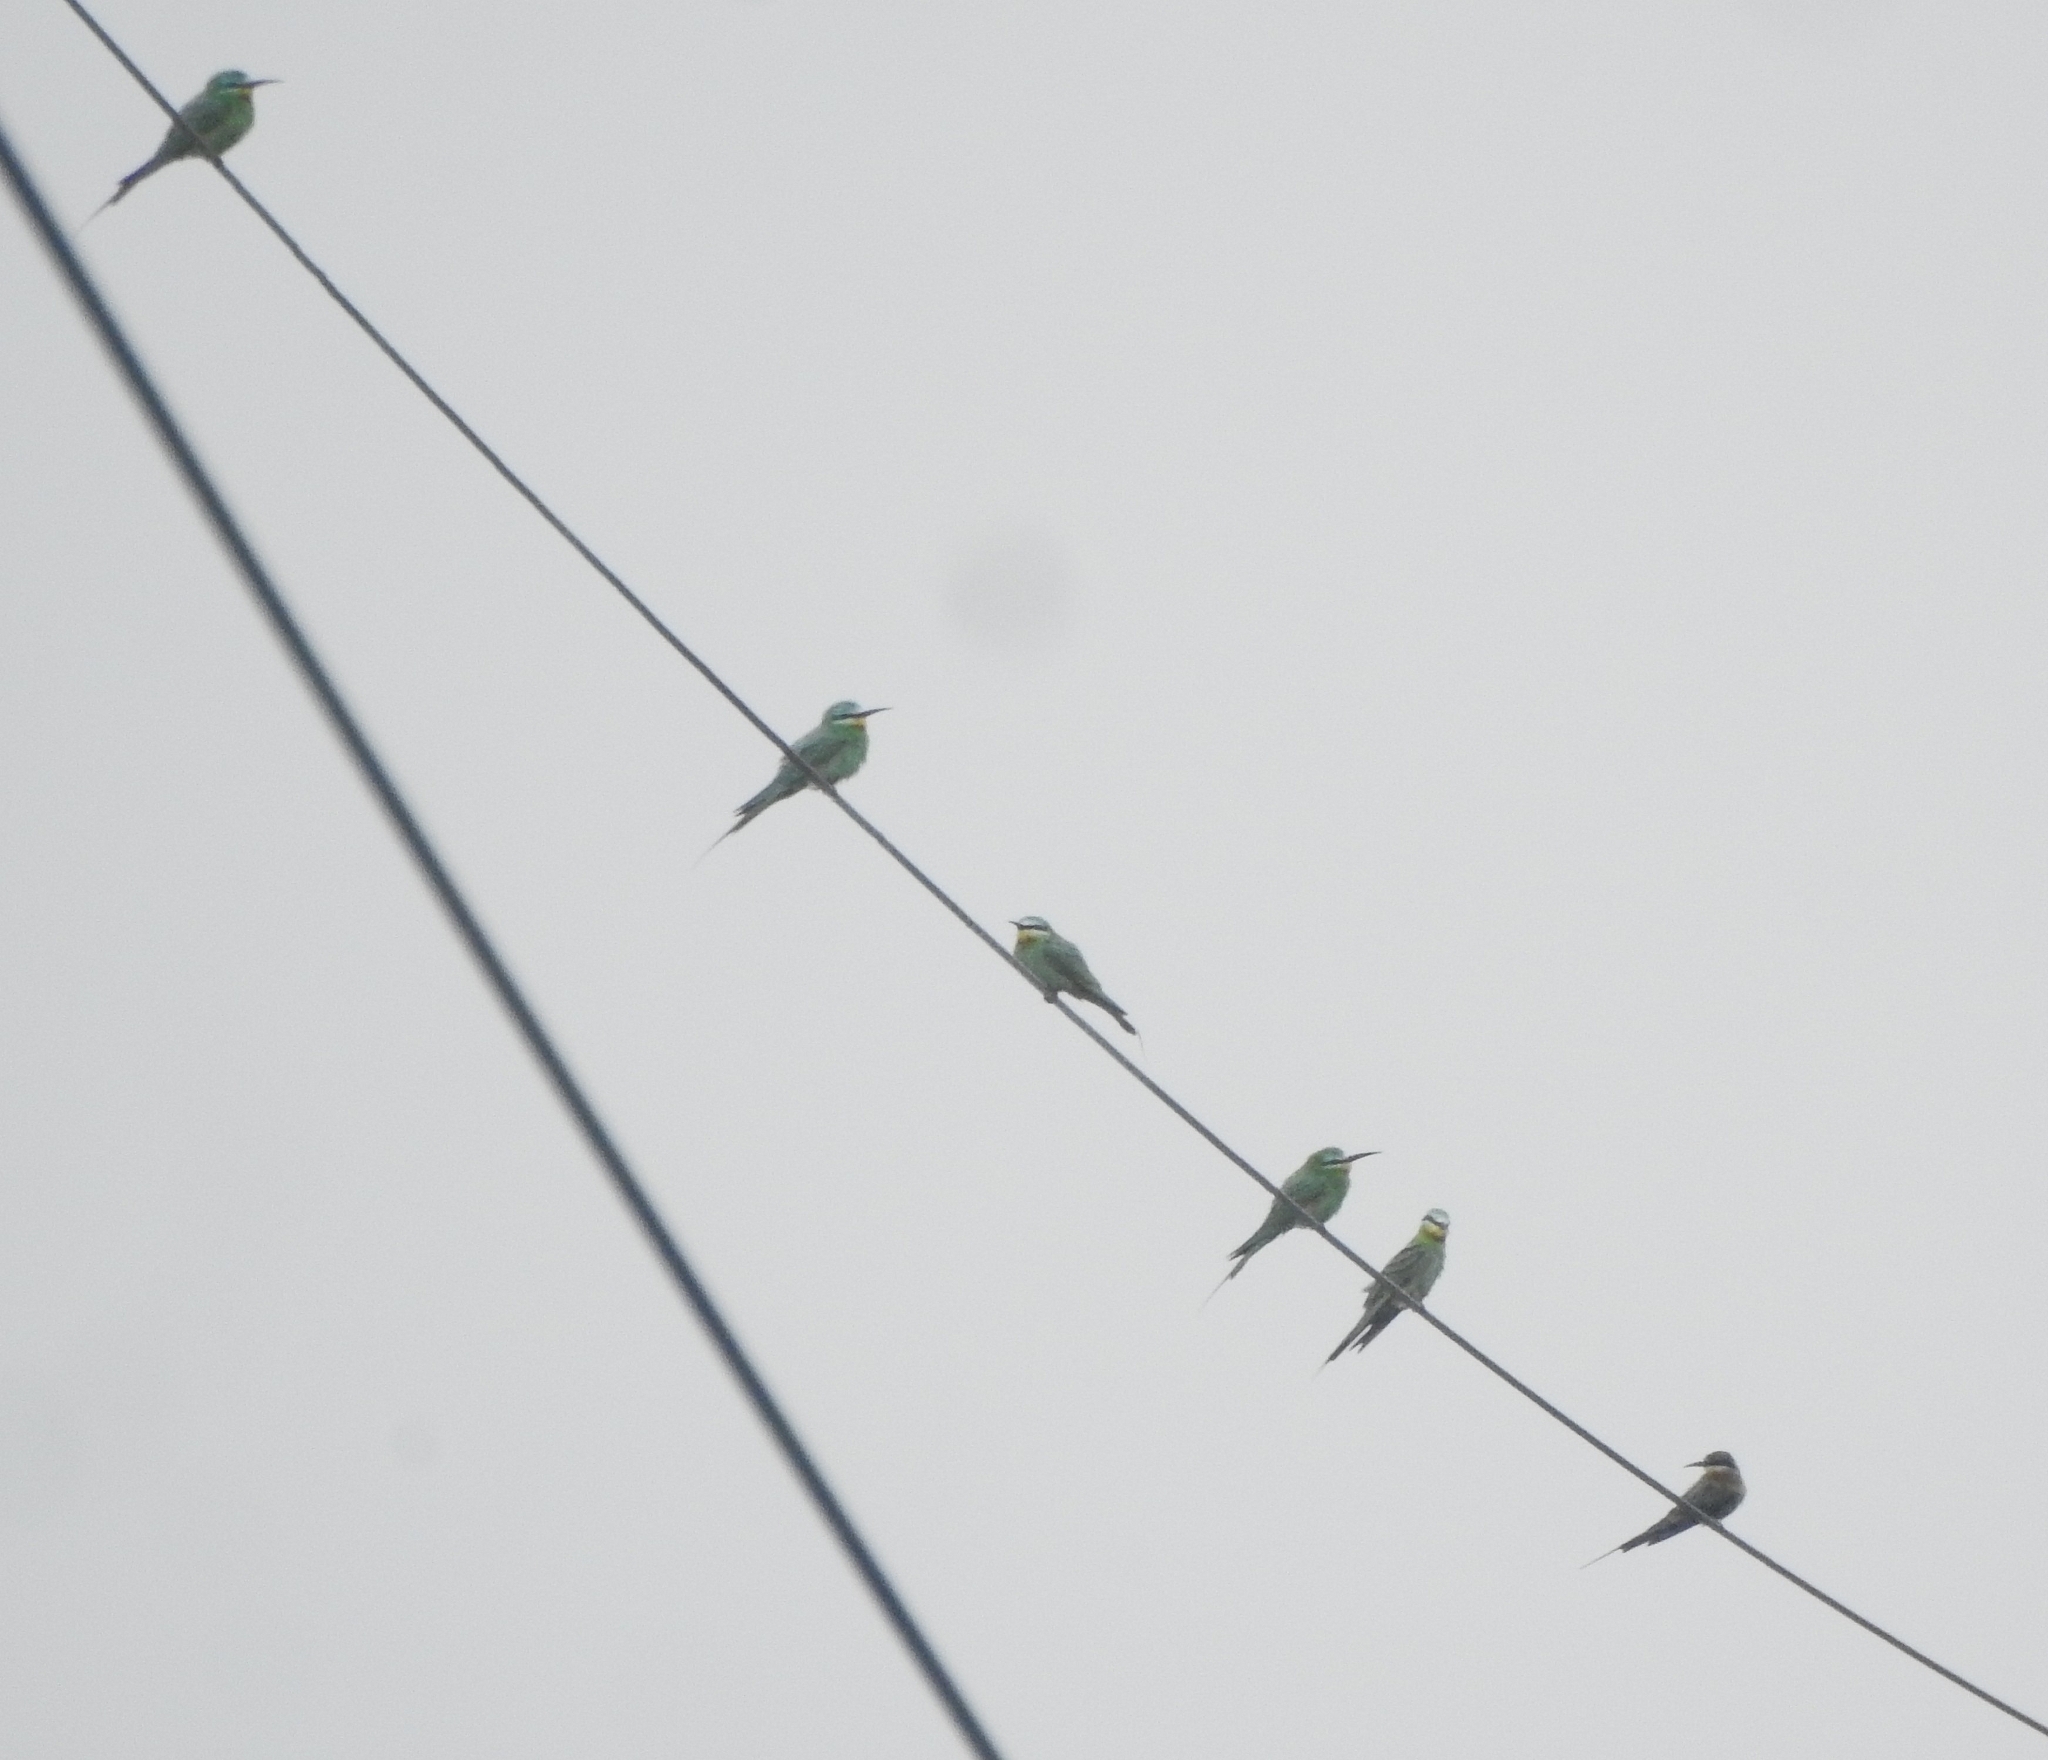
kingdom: Animalia
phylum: Chordata
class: Aves
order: Coraciiformes
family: Meropidae
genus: Merops
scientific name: Merops persicus
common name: Blue-cheeked bee-eater
